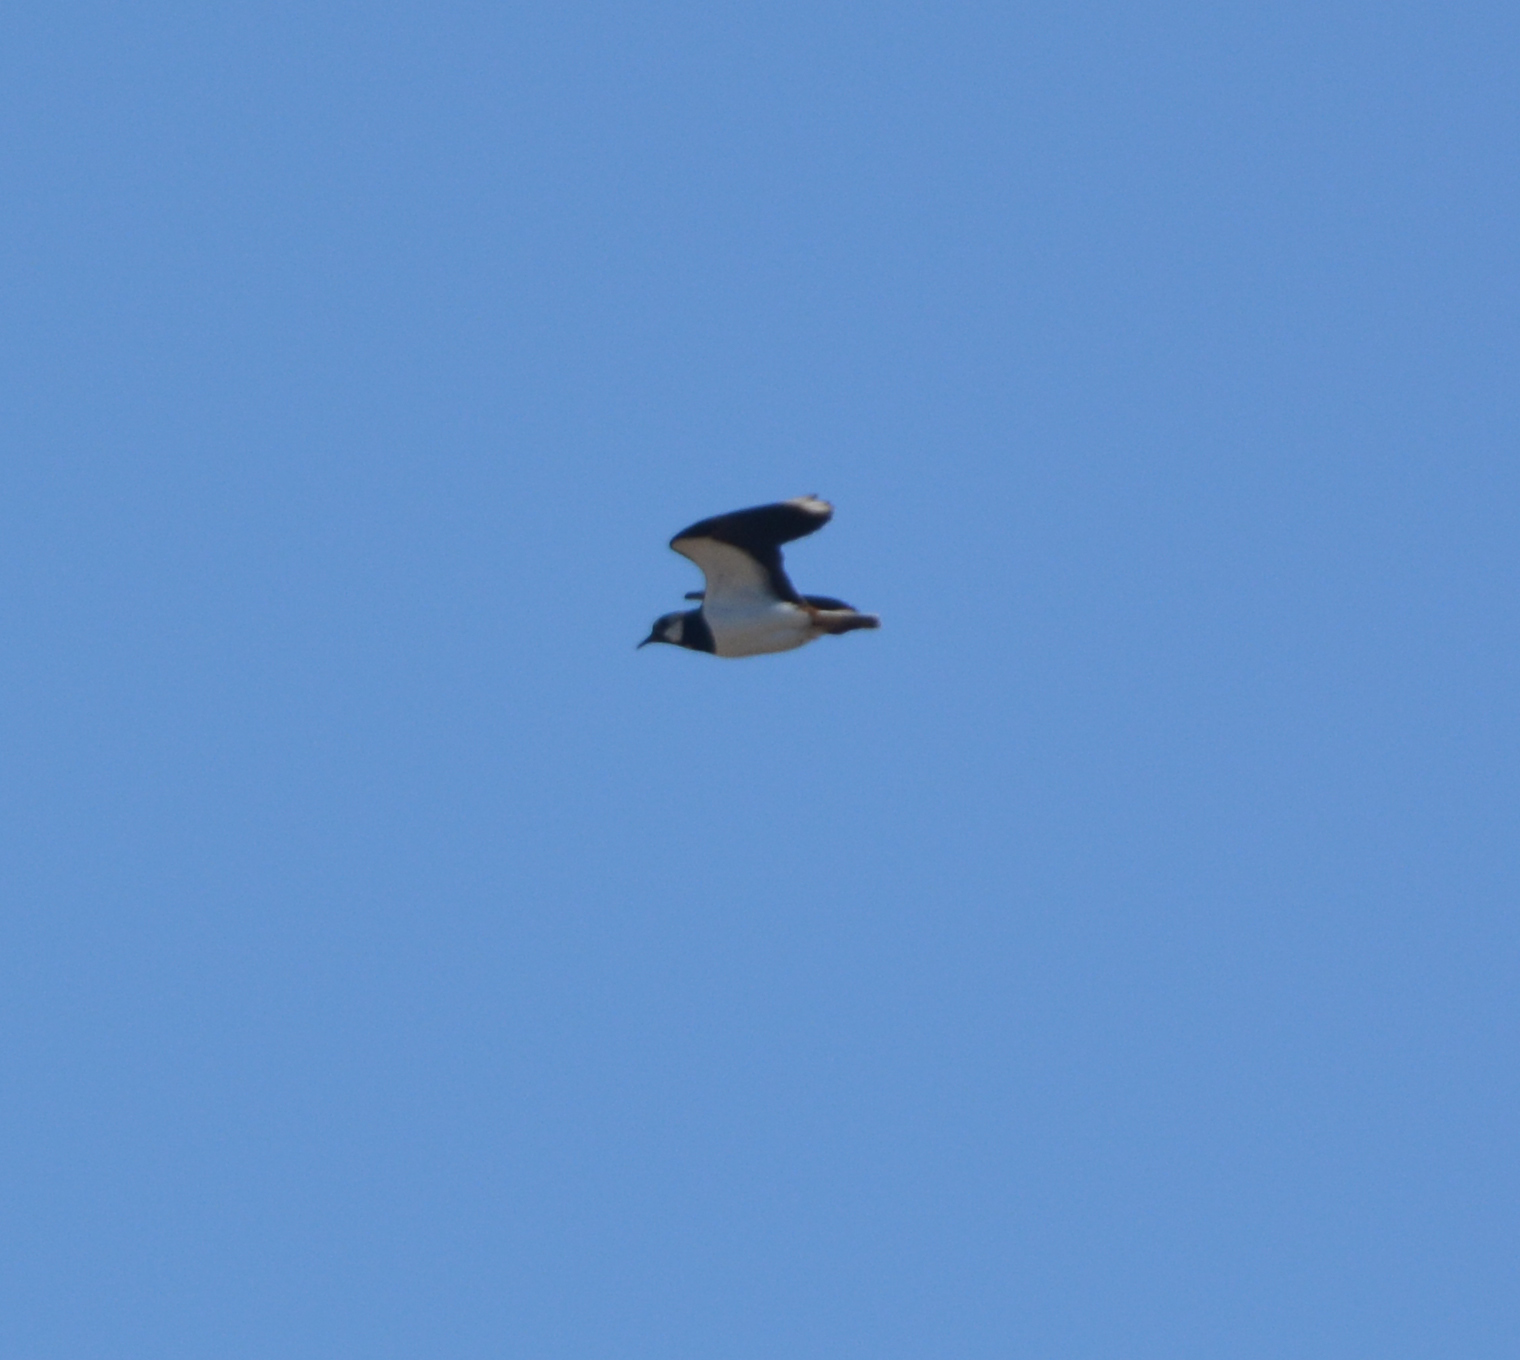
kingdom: Animalia
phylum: Chordata
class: Aves
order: Charadriiformes
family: Charadriidae
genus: Vanellus
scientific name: Vanellus vanellus
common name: Northern lapwing
